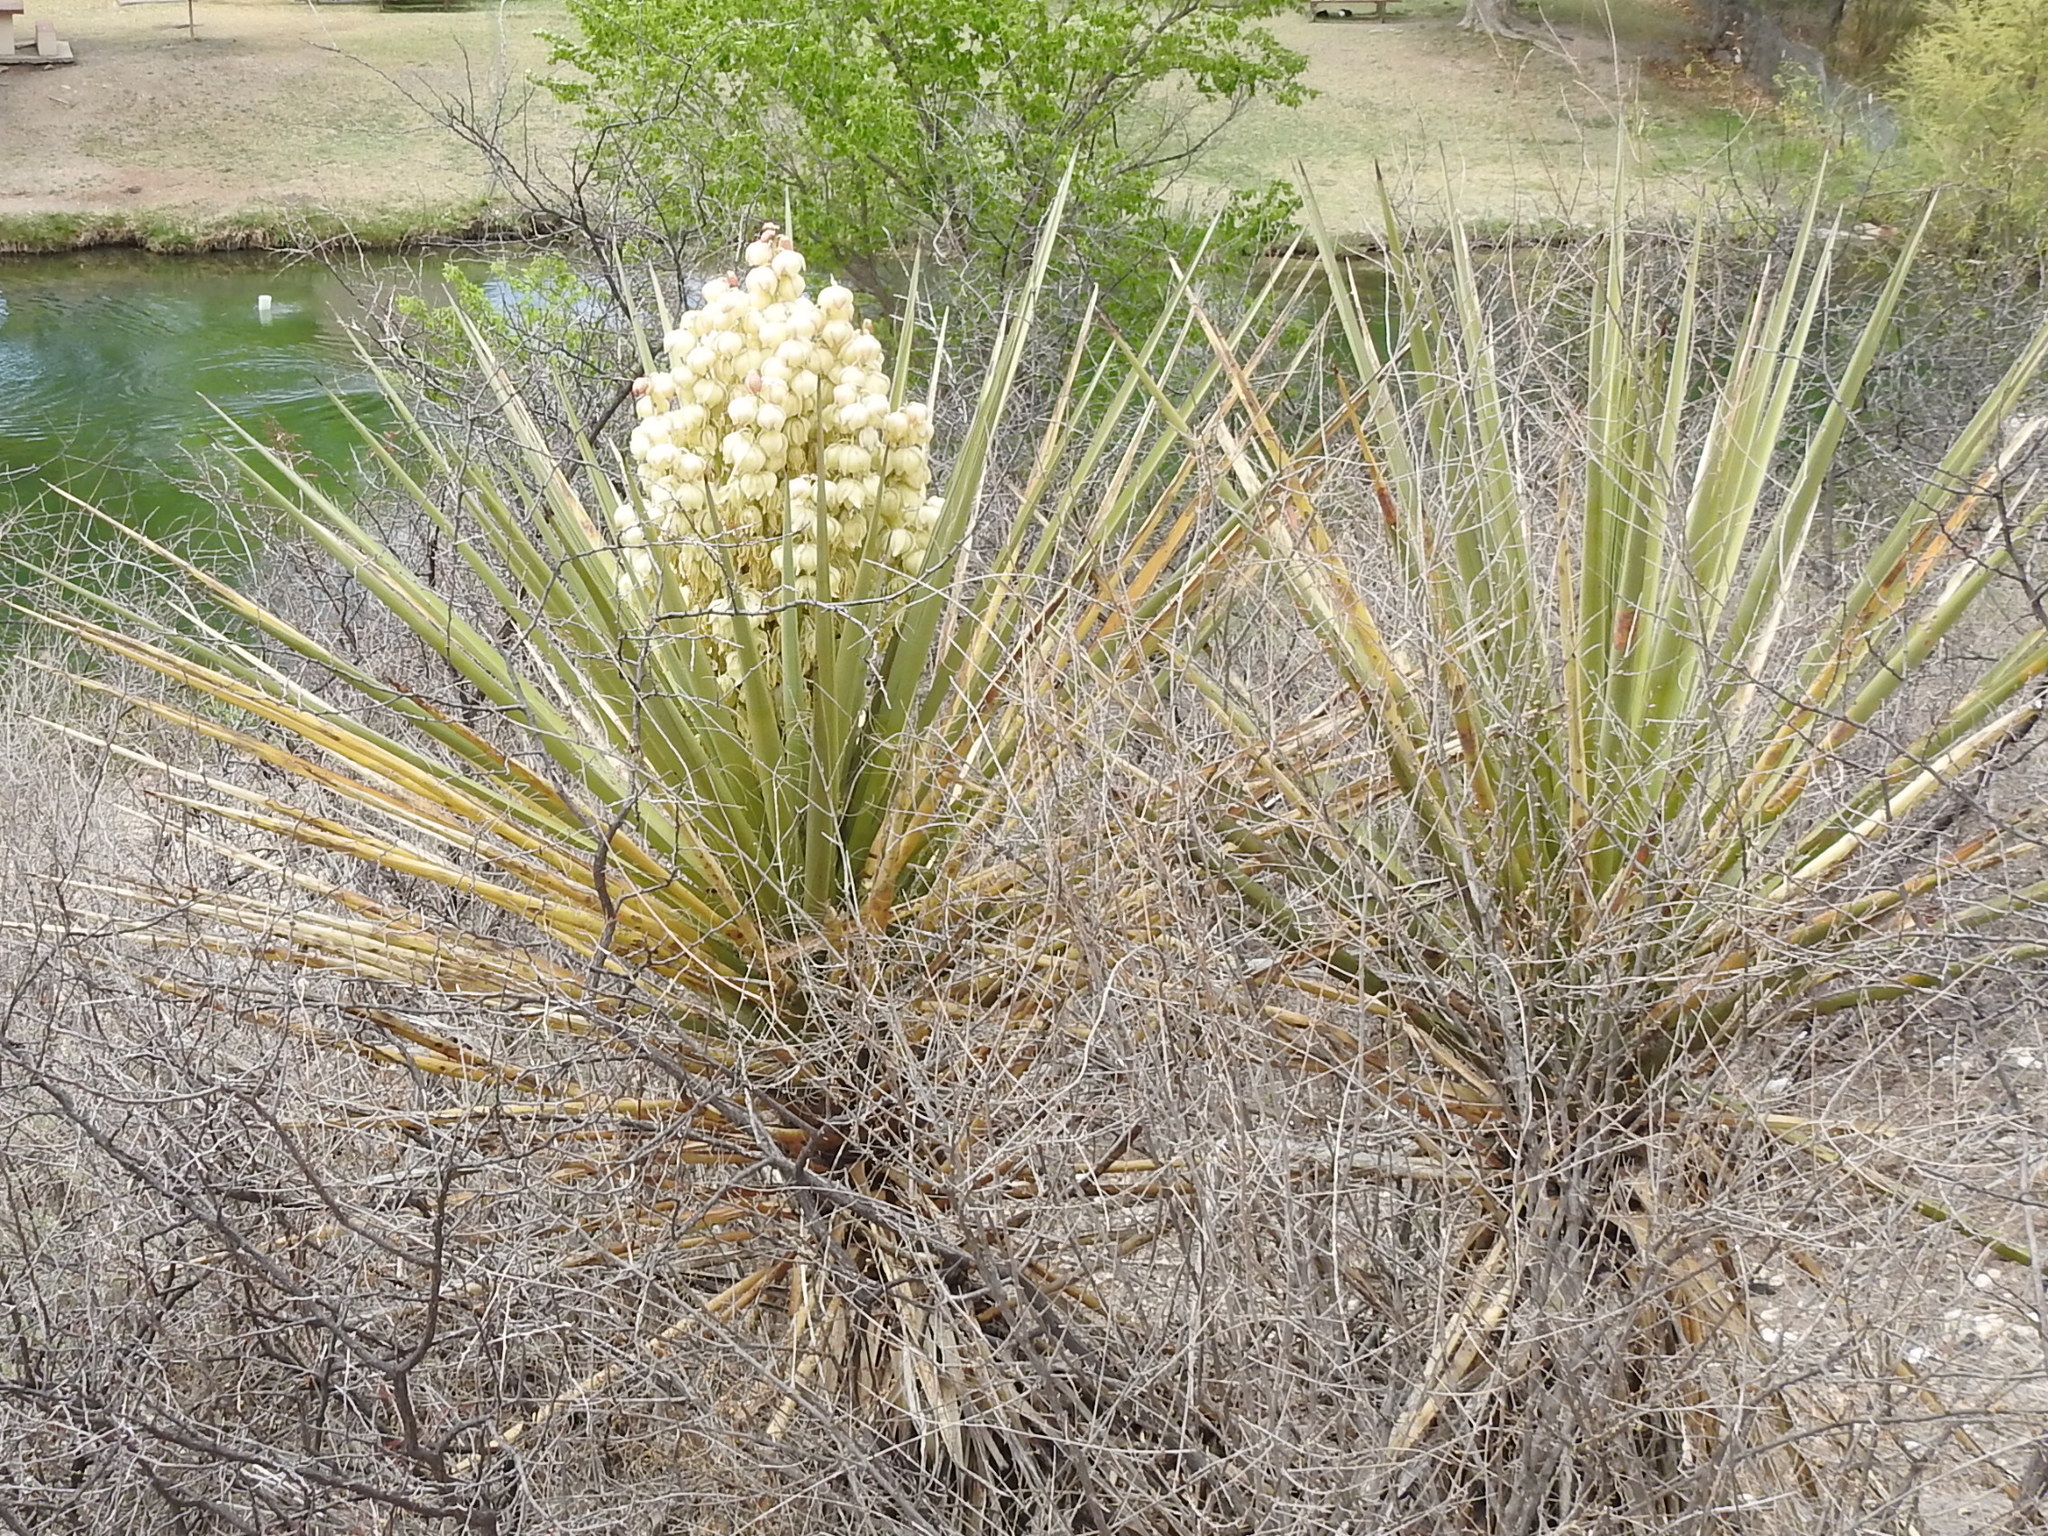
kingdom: Plantae
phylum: Tracheophyta
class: Liliopsida
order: Asparagales
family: Asparagaceae
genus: Yucca
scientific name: Yucca treculiana
